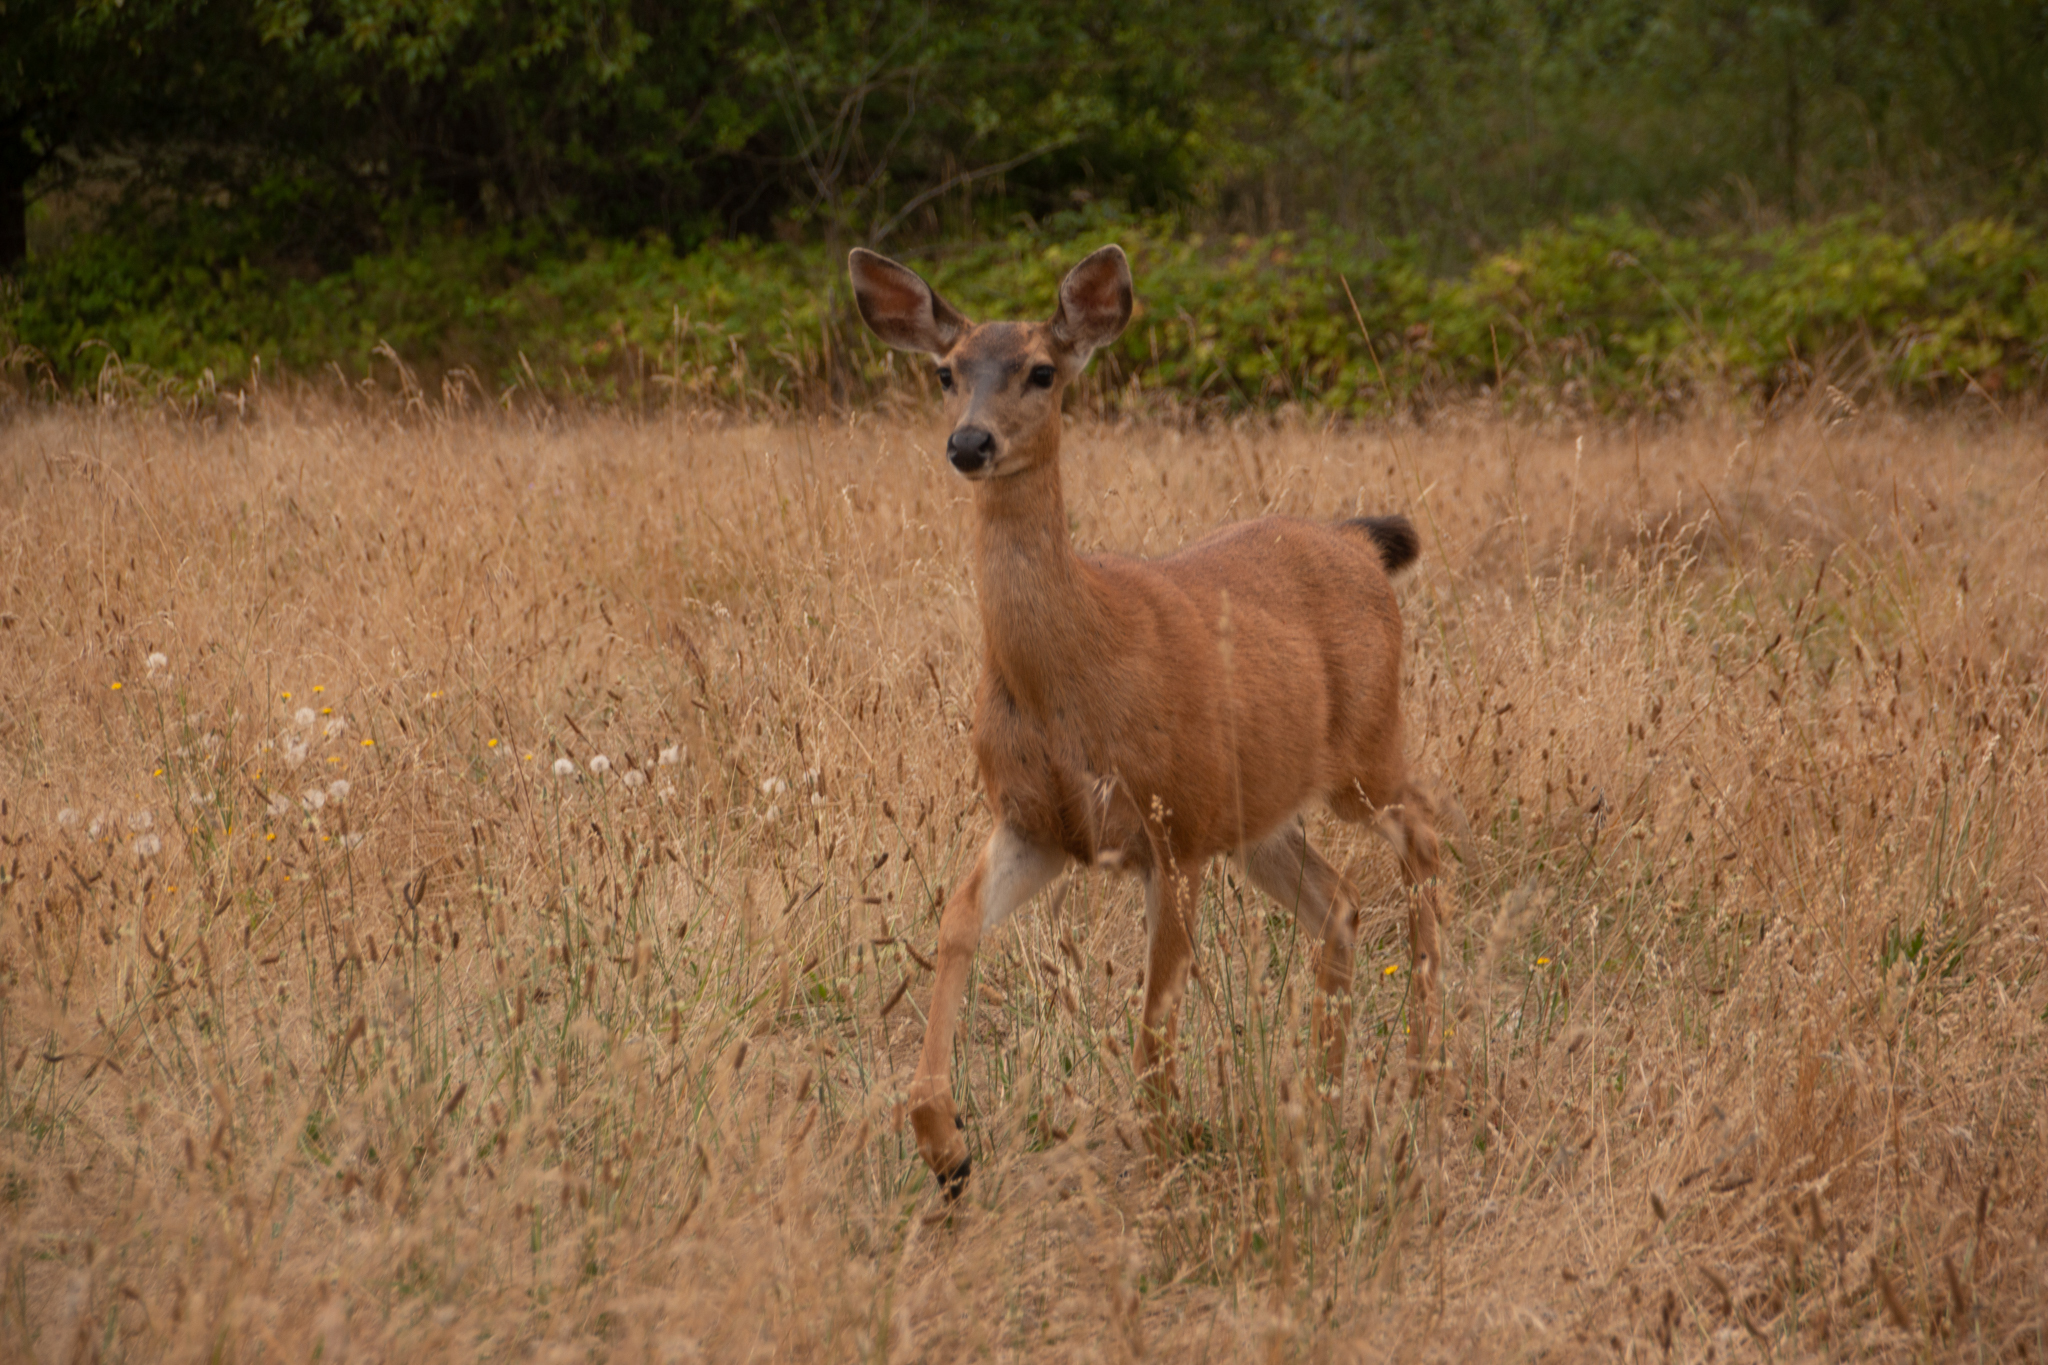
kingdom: Animalia
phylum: Chordata
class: Mammalia
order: Artiodactyla
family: Cervidae
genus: Odocoileus
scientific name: Odocoileus hemionus
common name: Mule deer
